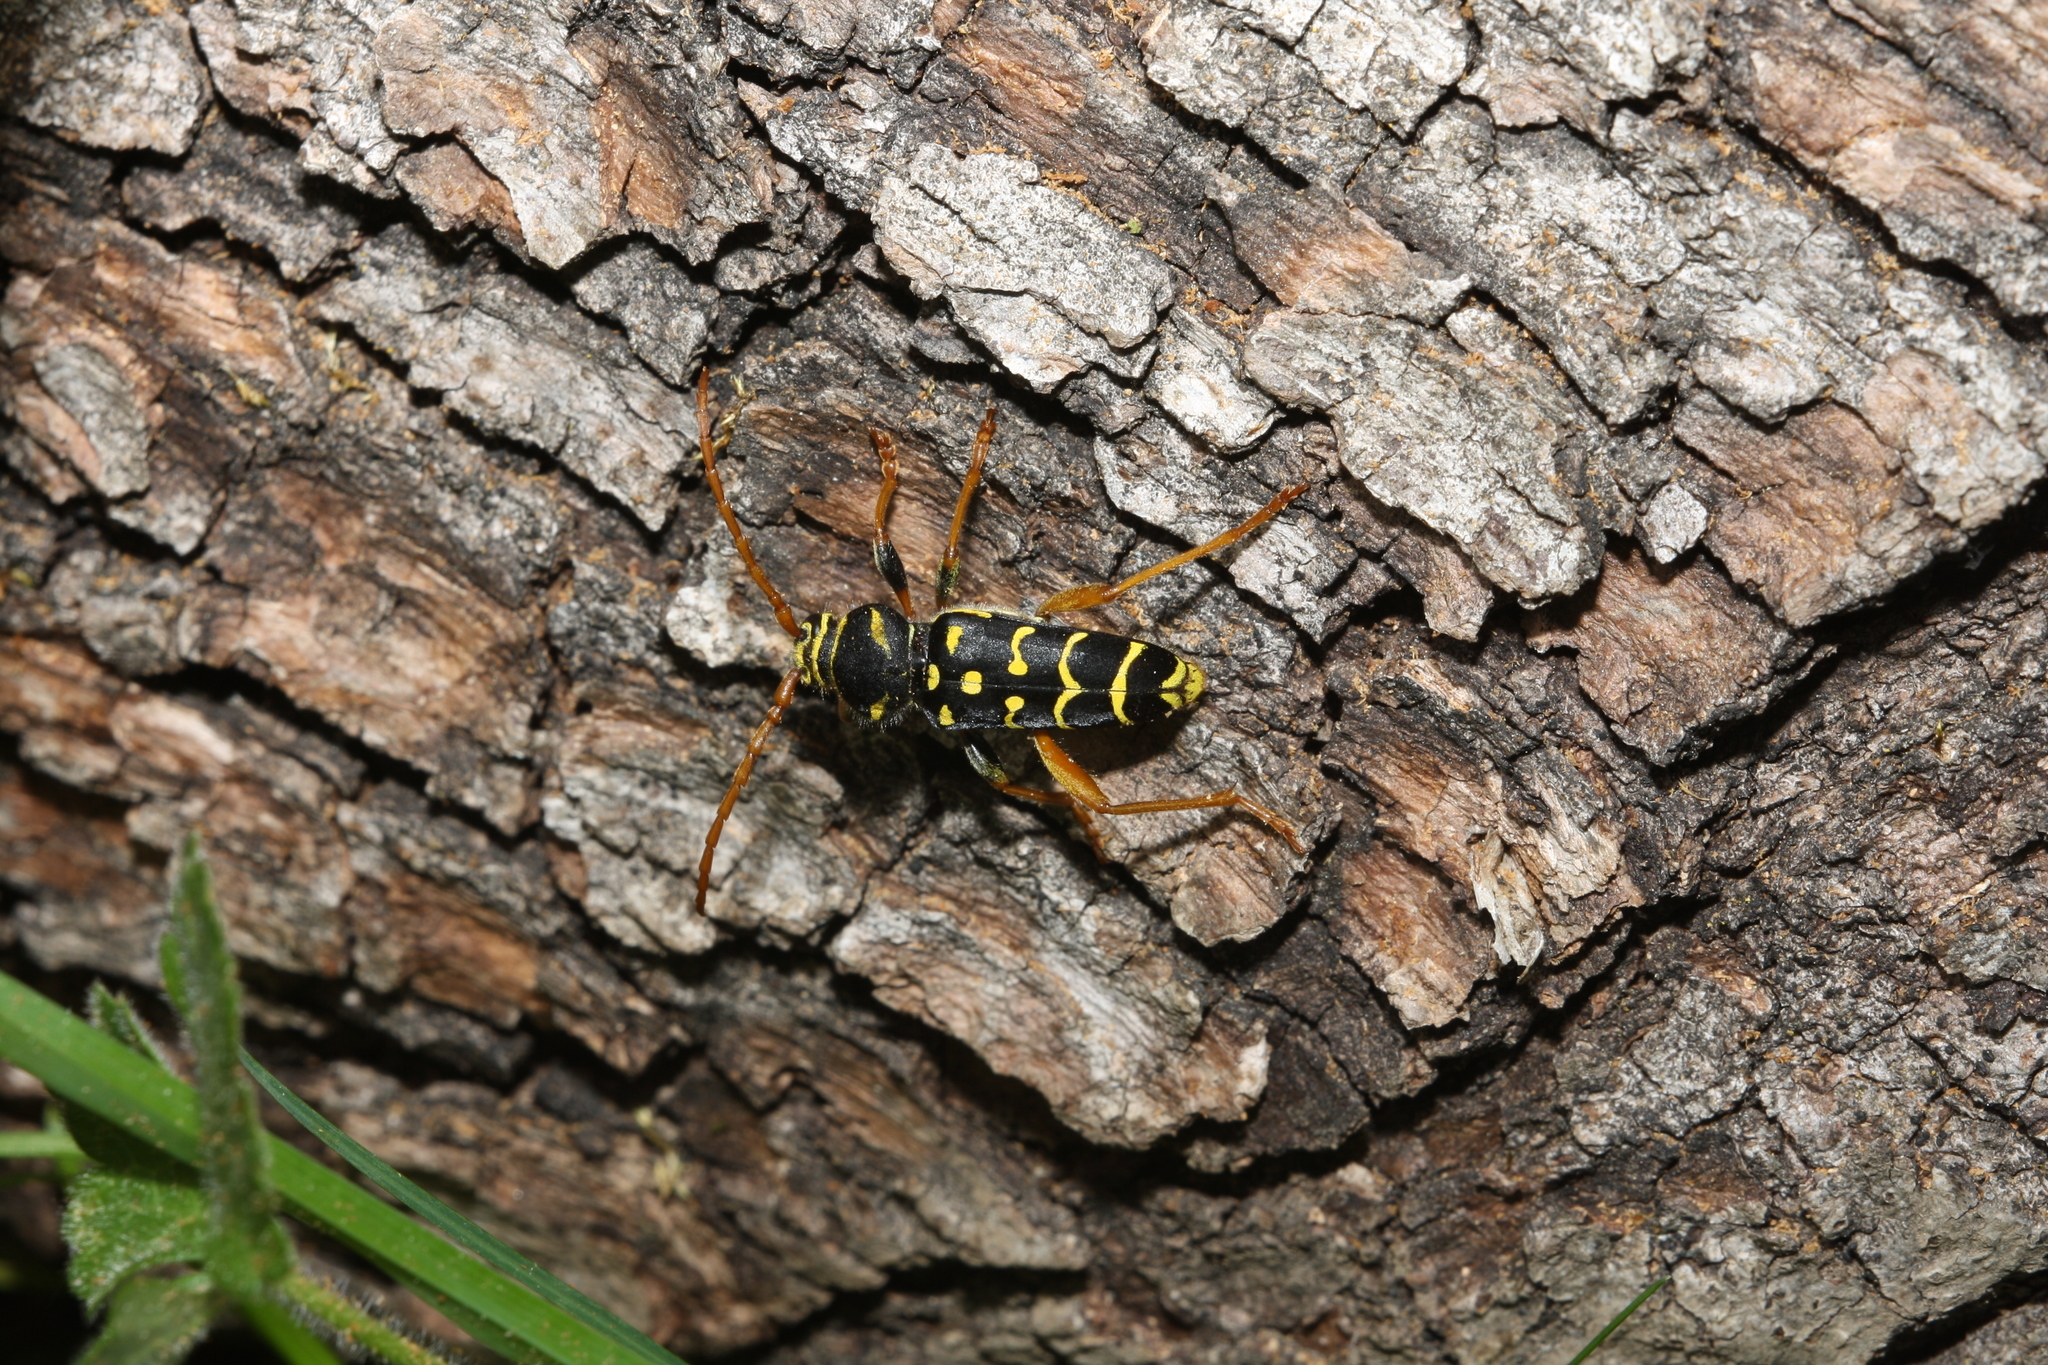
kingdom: Animalia
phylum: Arthropoda
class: Insecta
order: Coleoptera
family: Cerambycidae
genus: Plagionotus
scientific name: Plagionotus arcuatus
